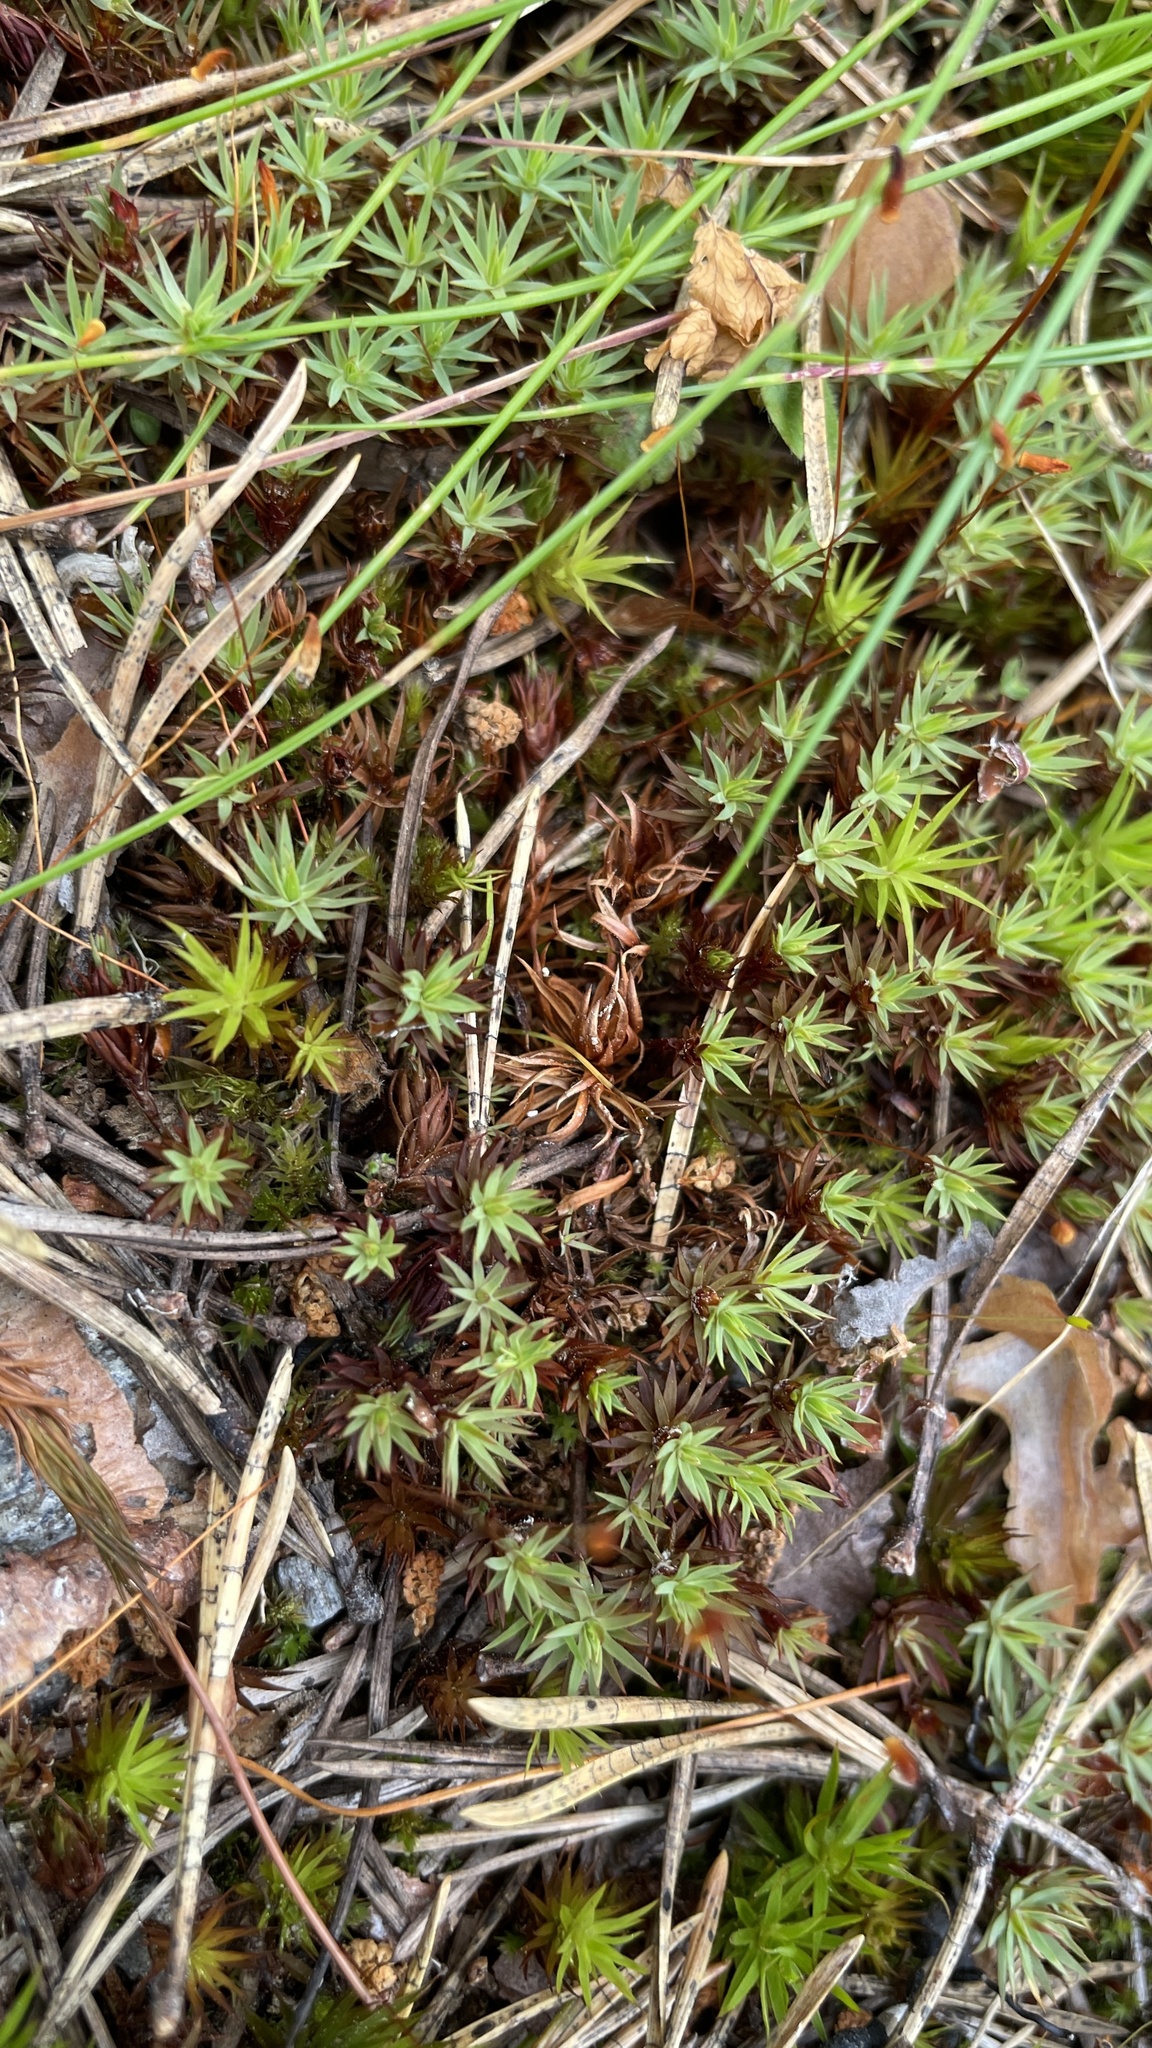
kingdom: Plantae
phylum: Bryophyta
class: Polytrichopsida
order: Polytrichales
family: Polytrichaceae
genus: Pogonatum
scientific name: Pogonatum urnigerum
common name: Urn hair moss
